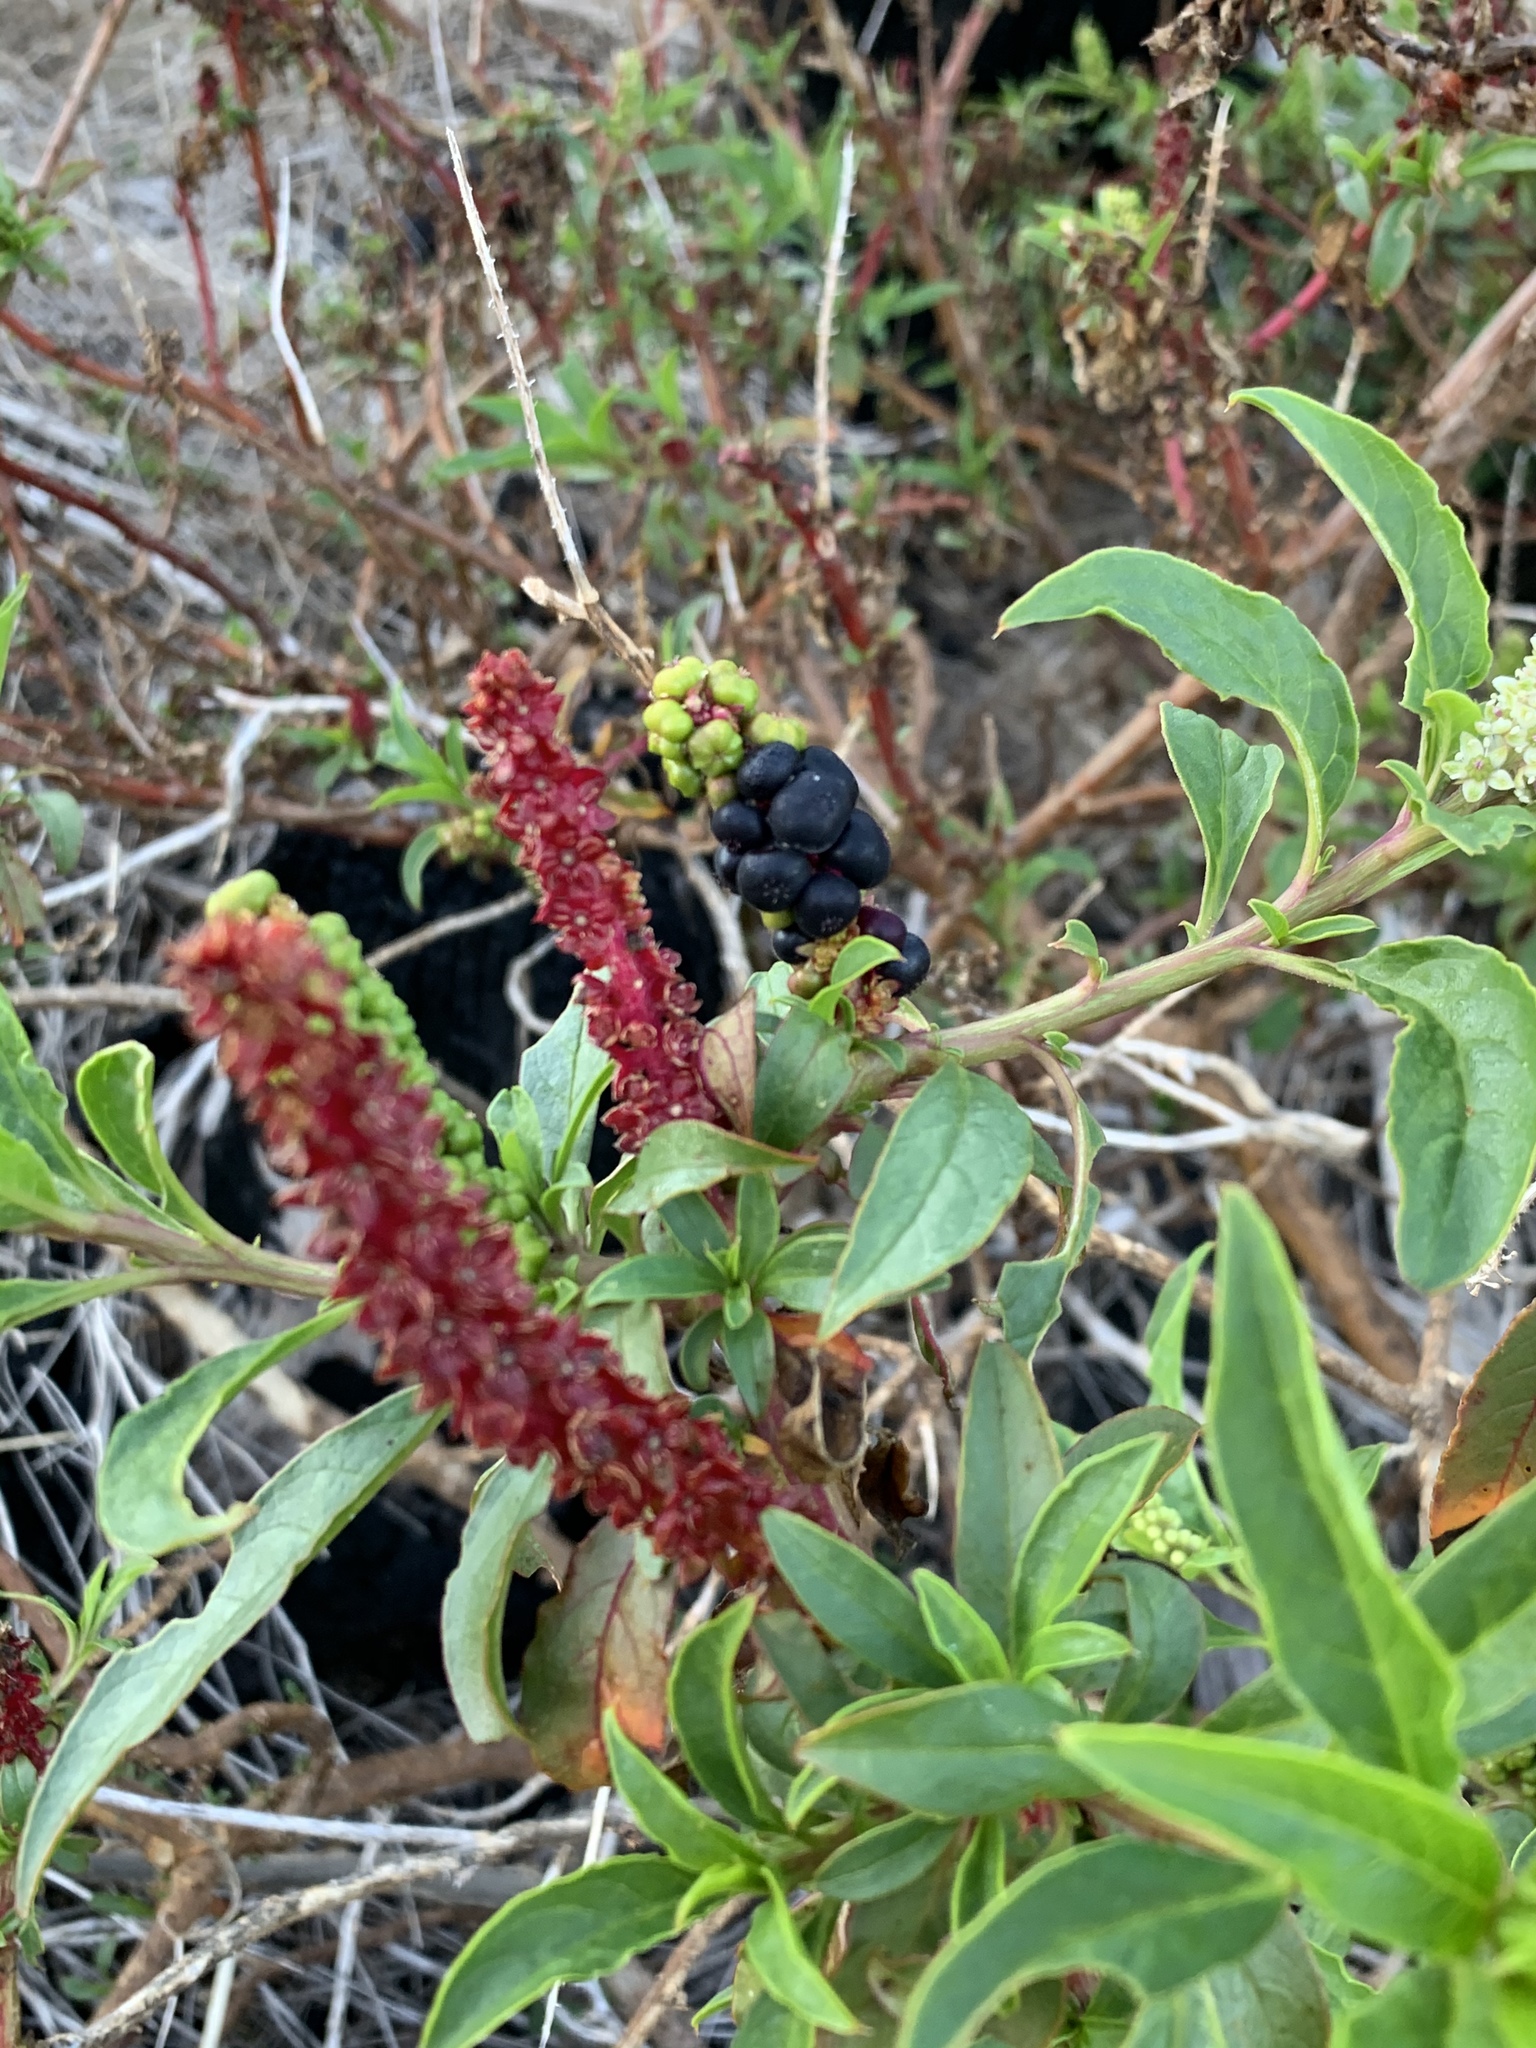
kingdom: Plantae
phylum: Tracheophyta
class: Magnoliopsida
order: Caryophyllales
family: Phytolaccaceae
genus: Phytolacca
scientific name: Phytolacca icosandra
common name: Button pokeweed
